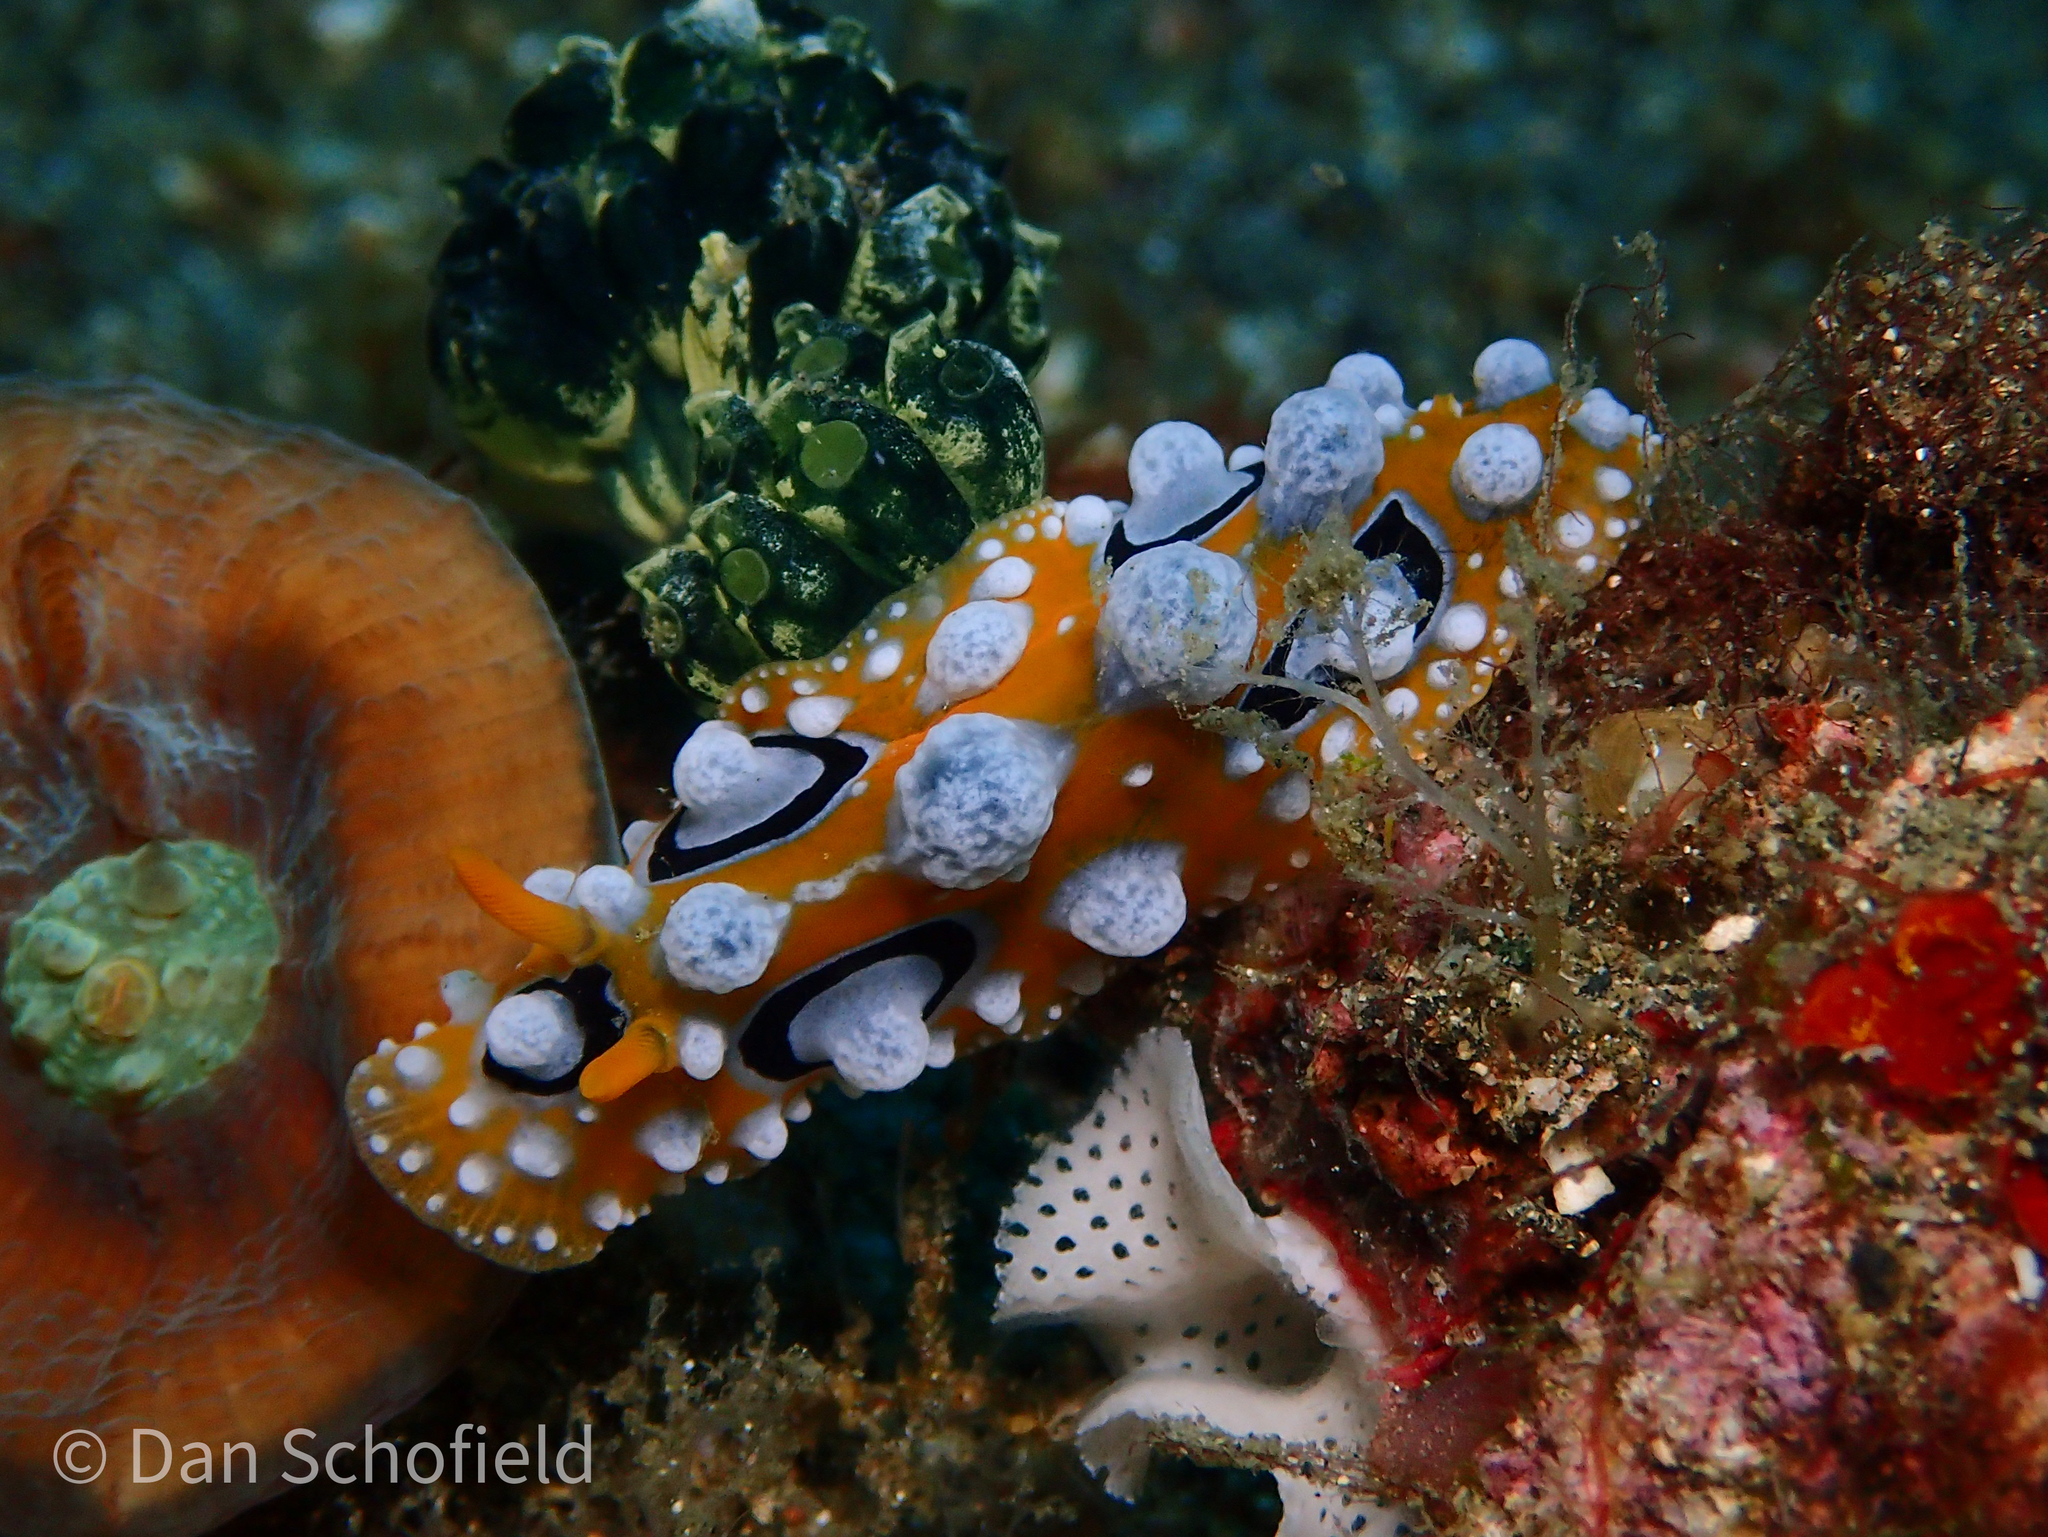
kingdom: Animalia
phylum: Mollusca
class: Gastropoda
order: Nudibranchia
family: Phyllidiidae
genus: Phyllidia
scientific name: Phyllidia ocellata
